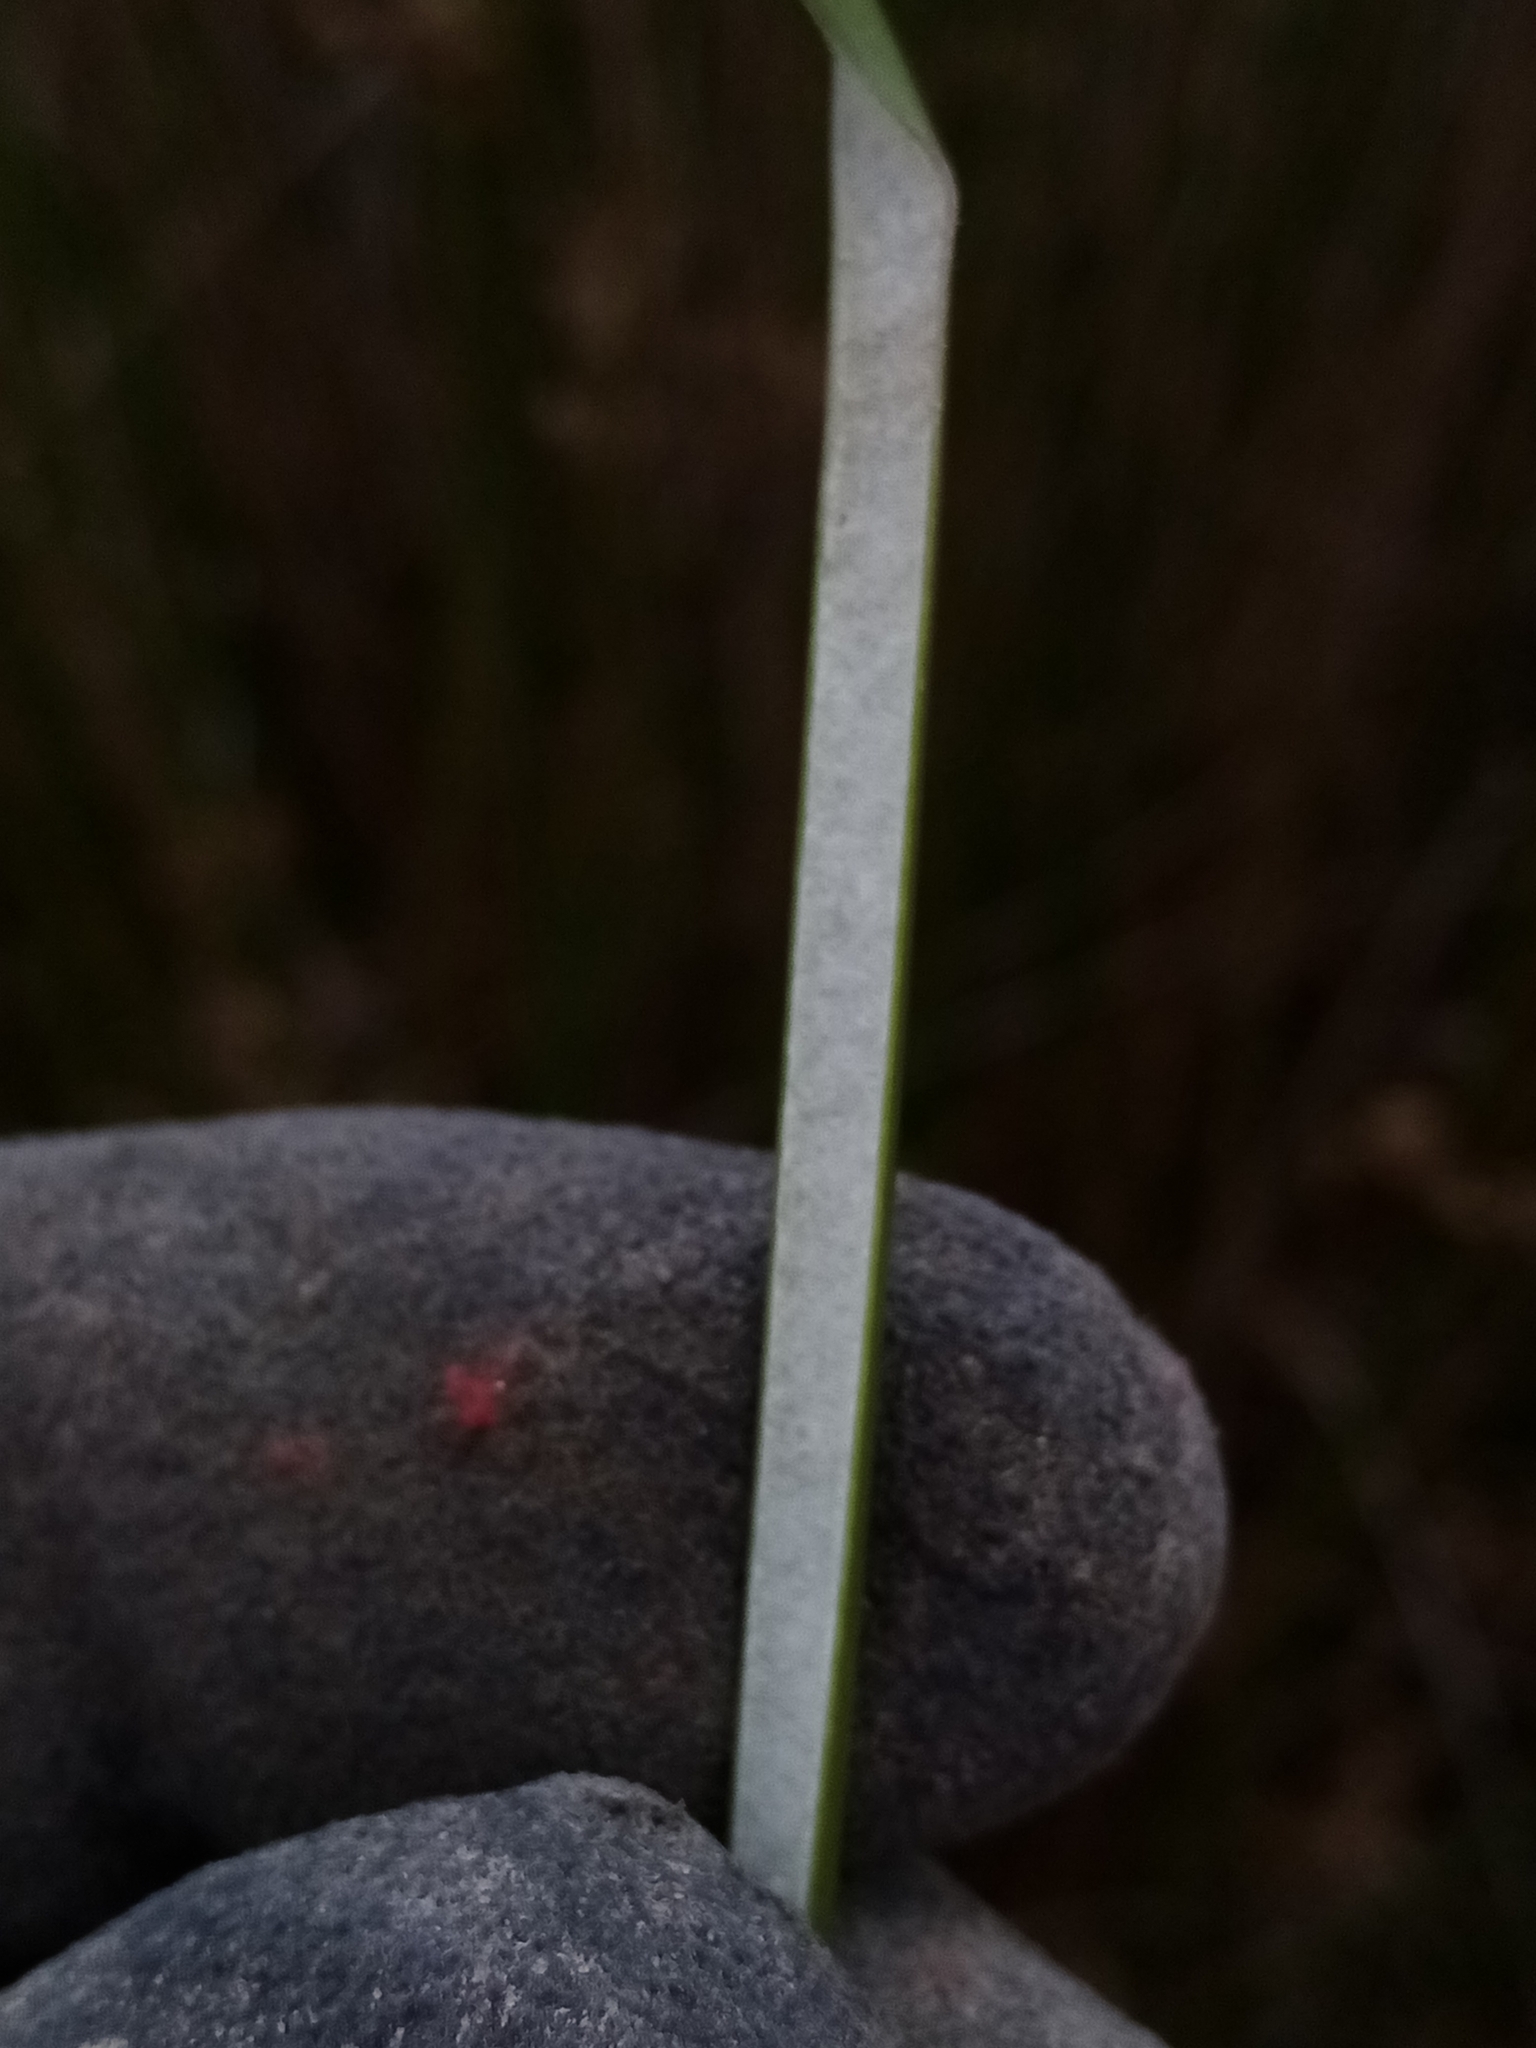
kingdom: Plantae
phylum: Tracheophyta
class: Liliopsida
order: Poales
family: Juncaceae
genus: Juncus
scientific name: Juncus effusus
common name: Soft rush
